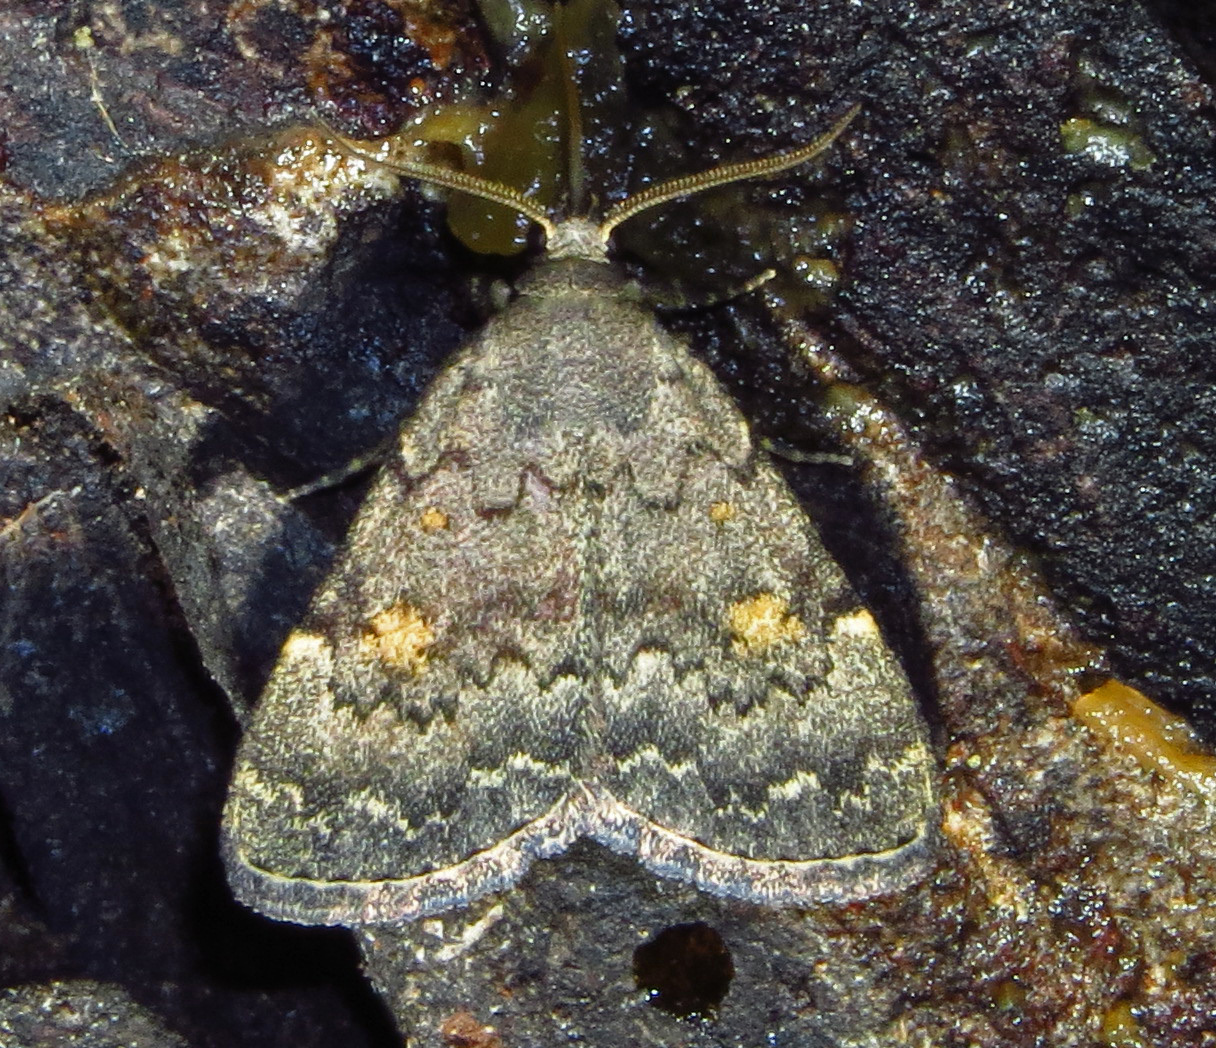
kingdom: Animalia
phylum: Arthropoda
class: Insecta
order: Lepidoptera
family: Erebidae
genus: Idia
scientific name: Idia aemula
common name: Common idia moth
